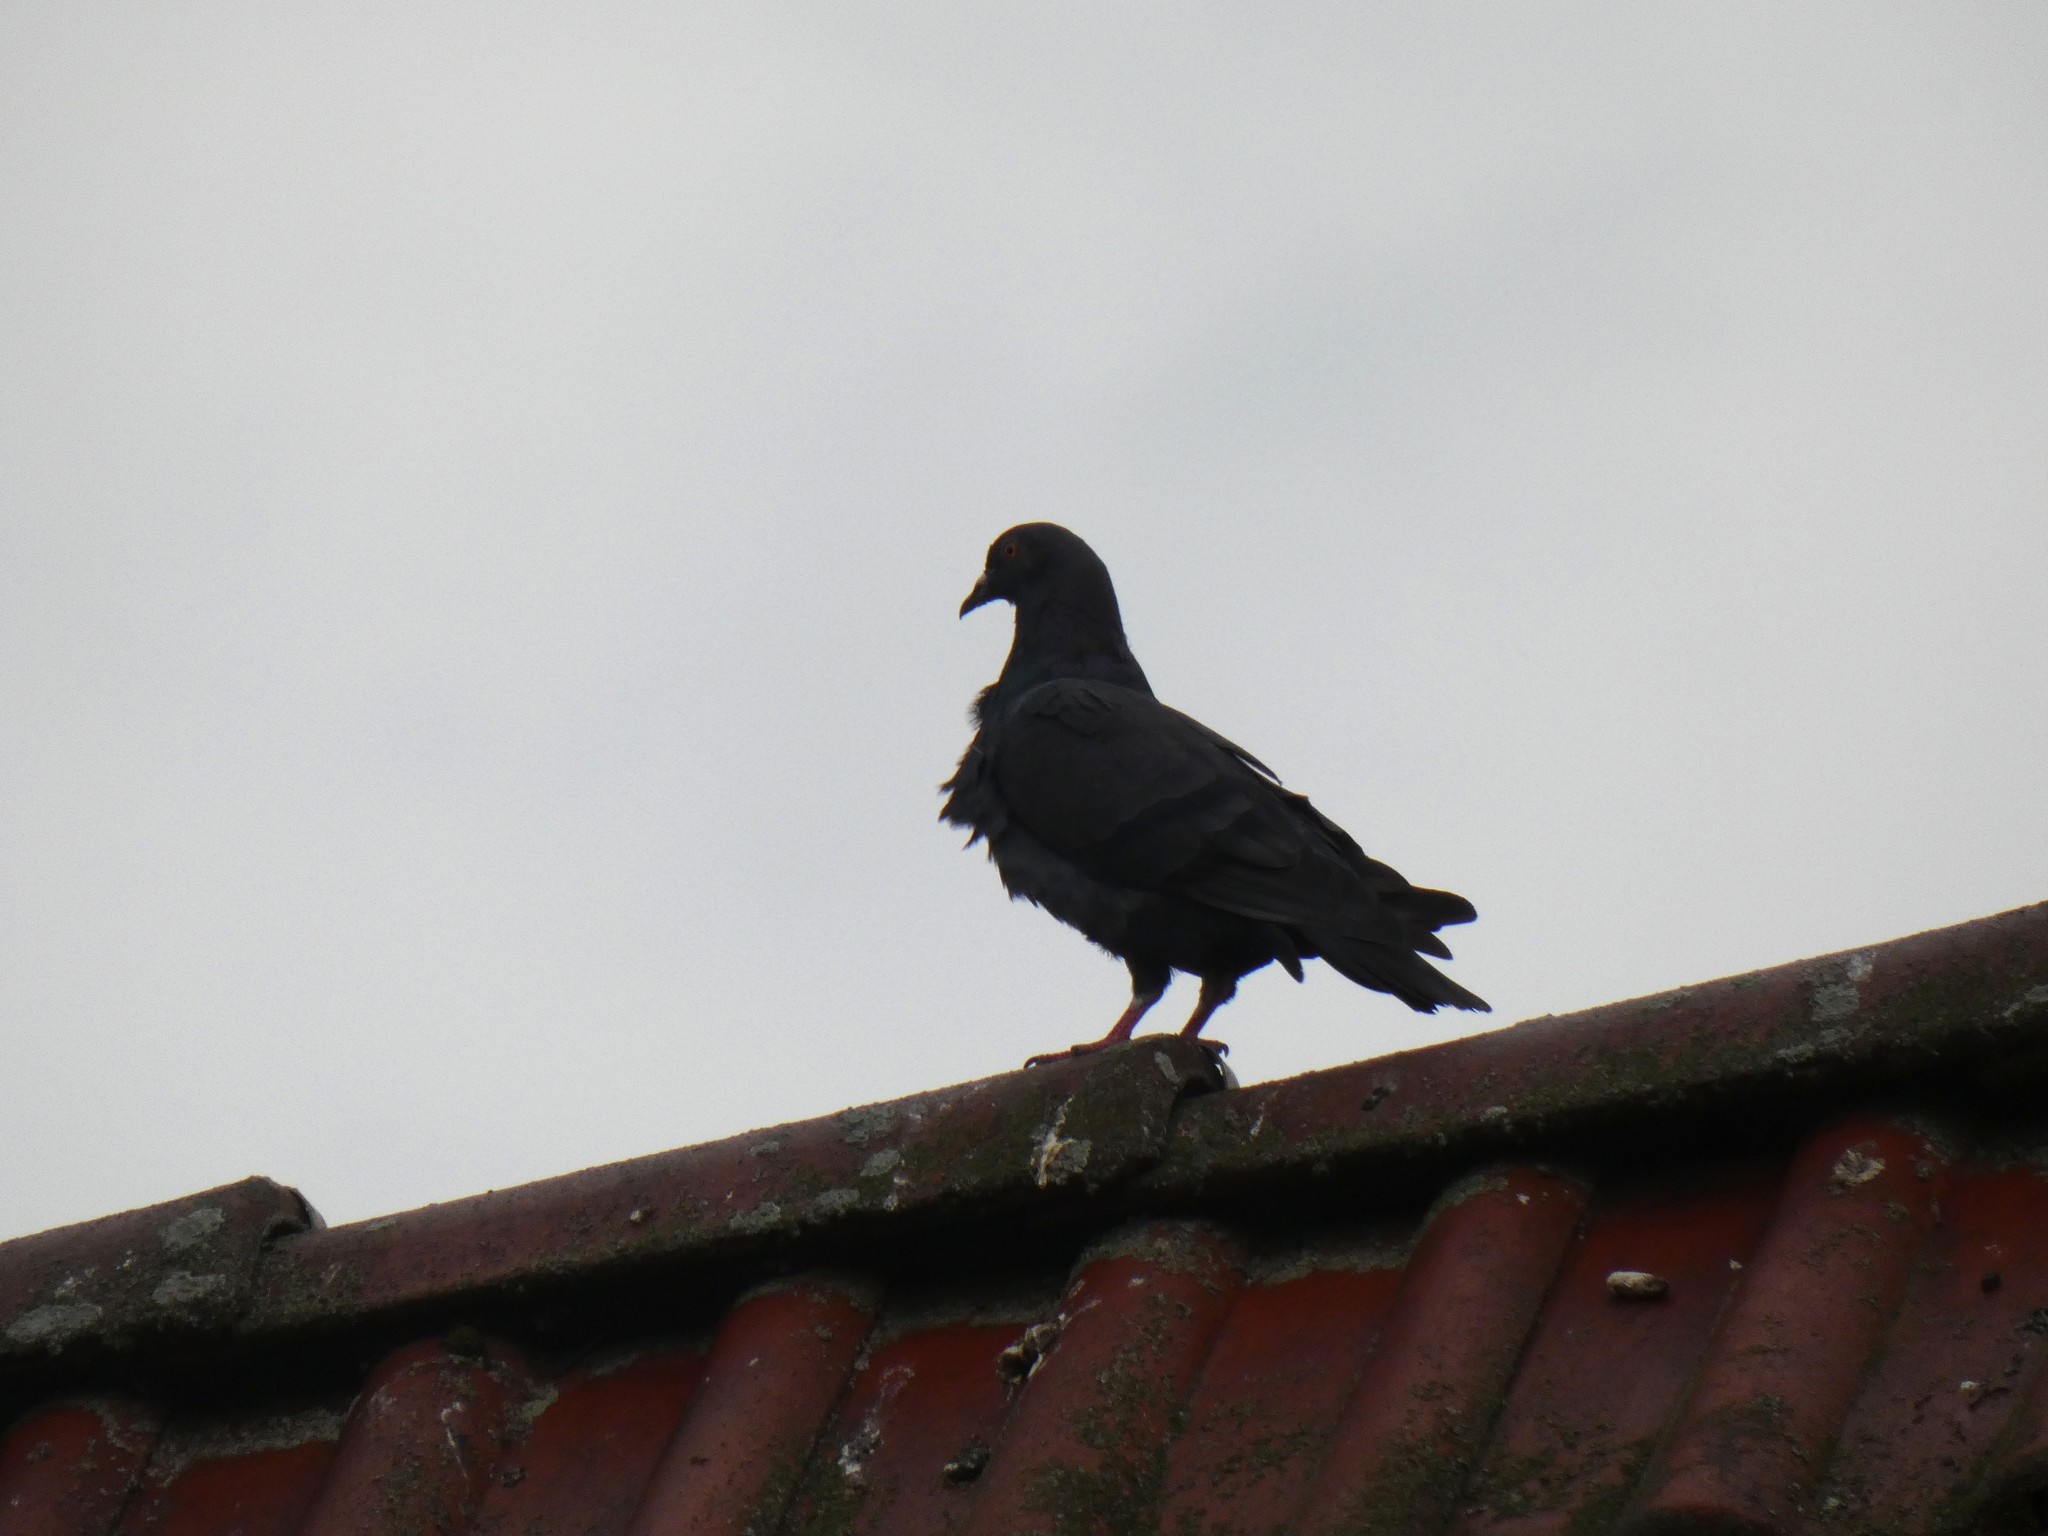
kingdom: Animalia
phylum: Chordata
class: Aves
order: Columbiformes
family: Columbidae
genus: Columba
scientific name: Columba livia
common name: Rock pigeon
